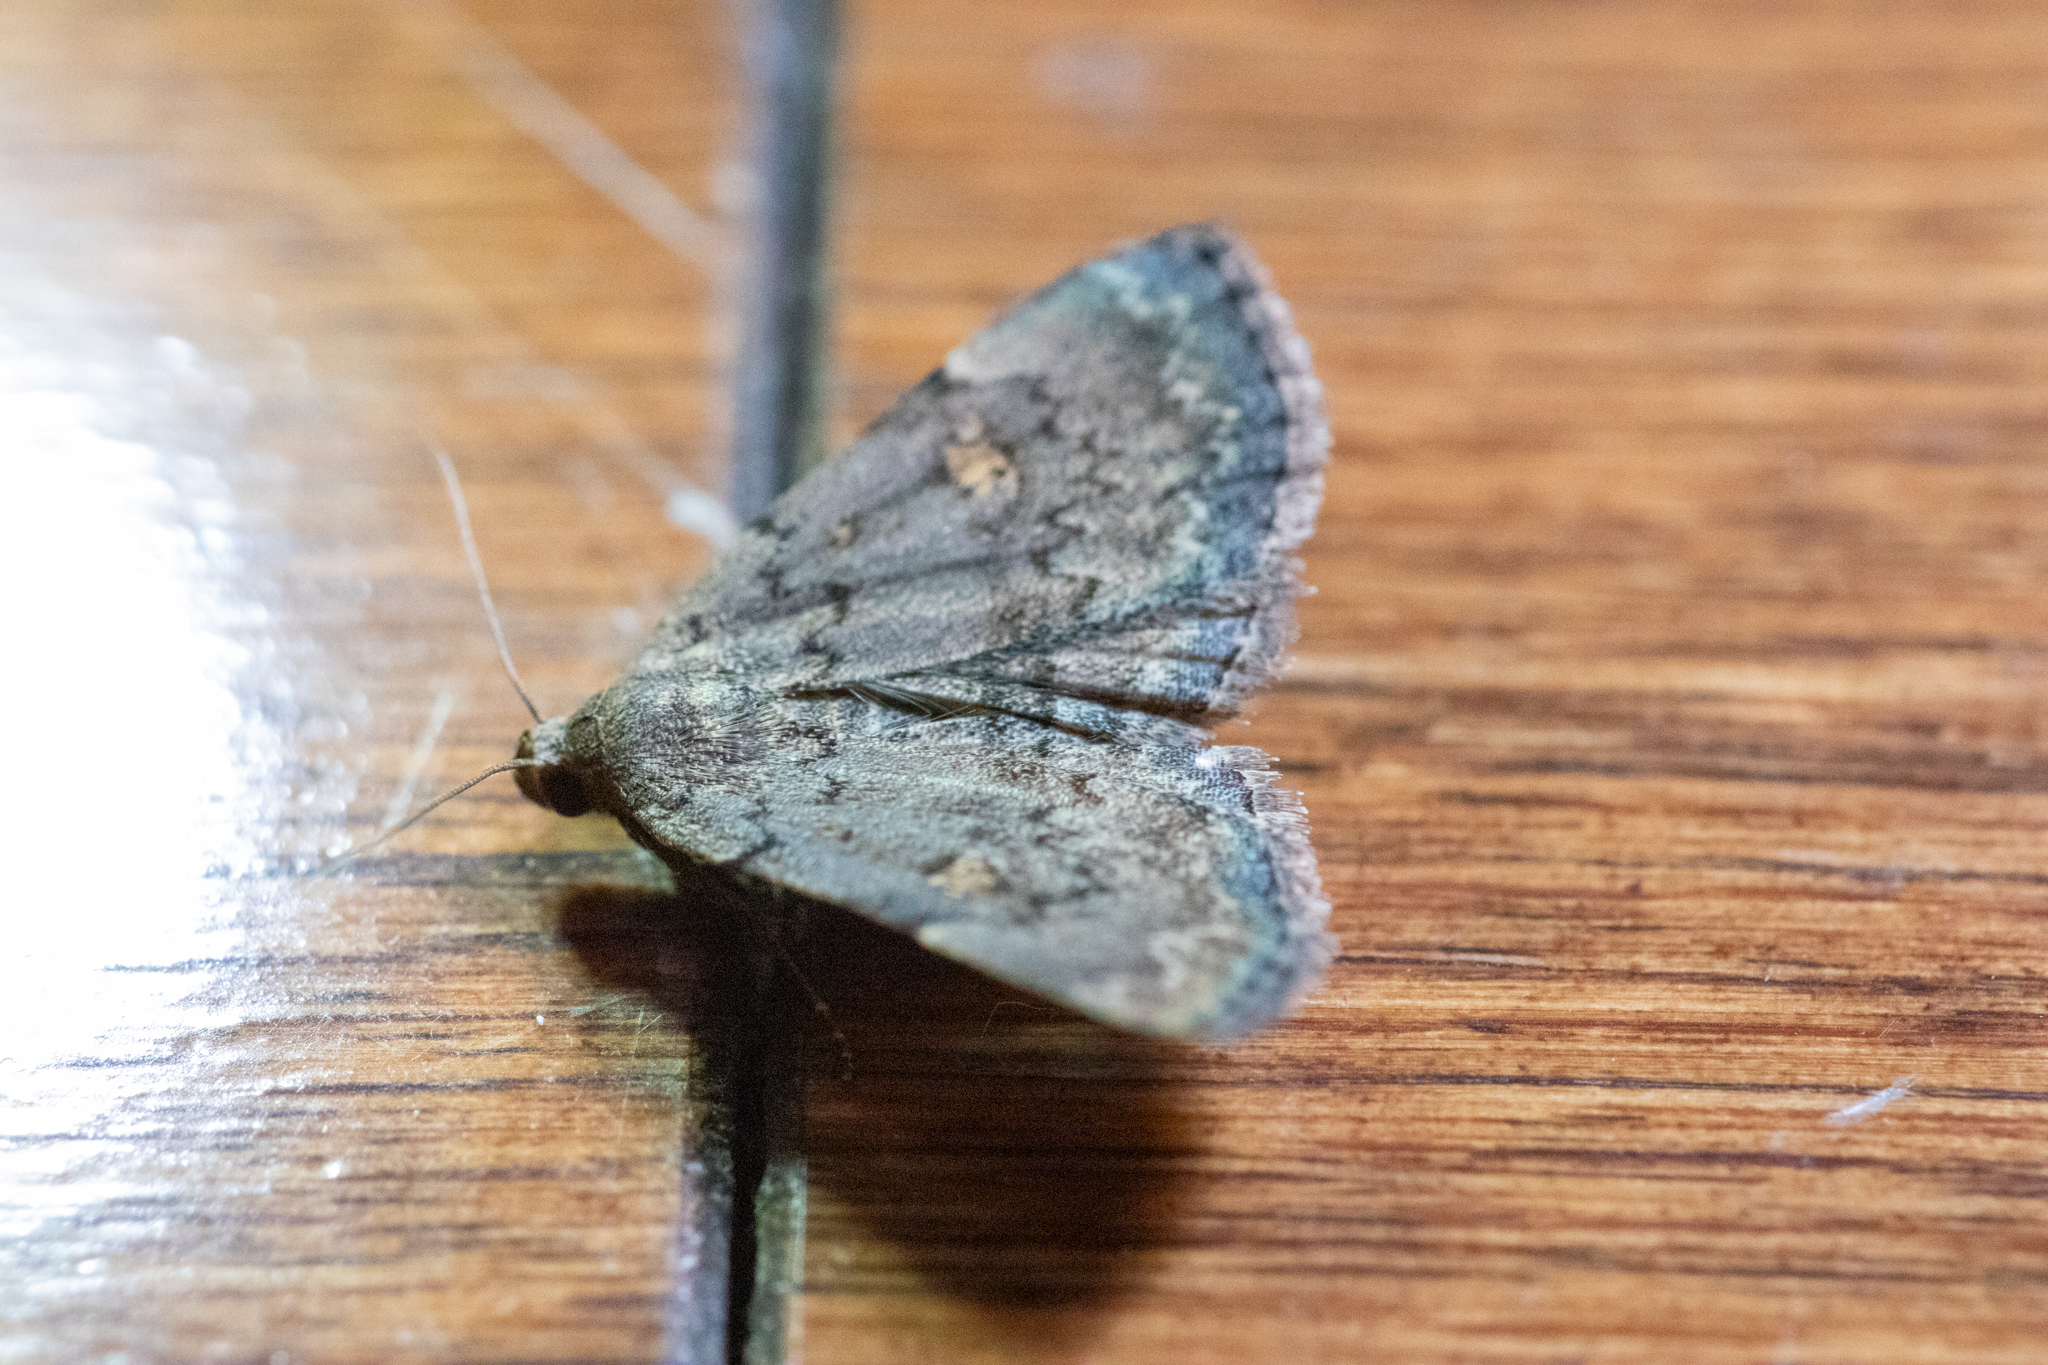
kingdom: Animalia
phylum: Arthropoda
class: Insecta
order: Lepidoptera
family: Erebidae
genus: Idia
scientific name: Idia aemula
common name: Common idia moth
